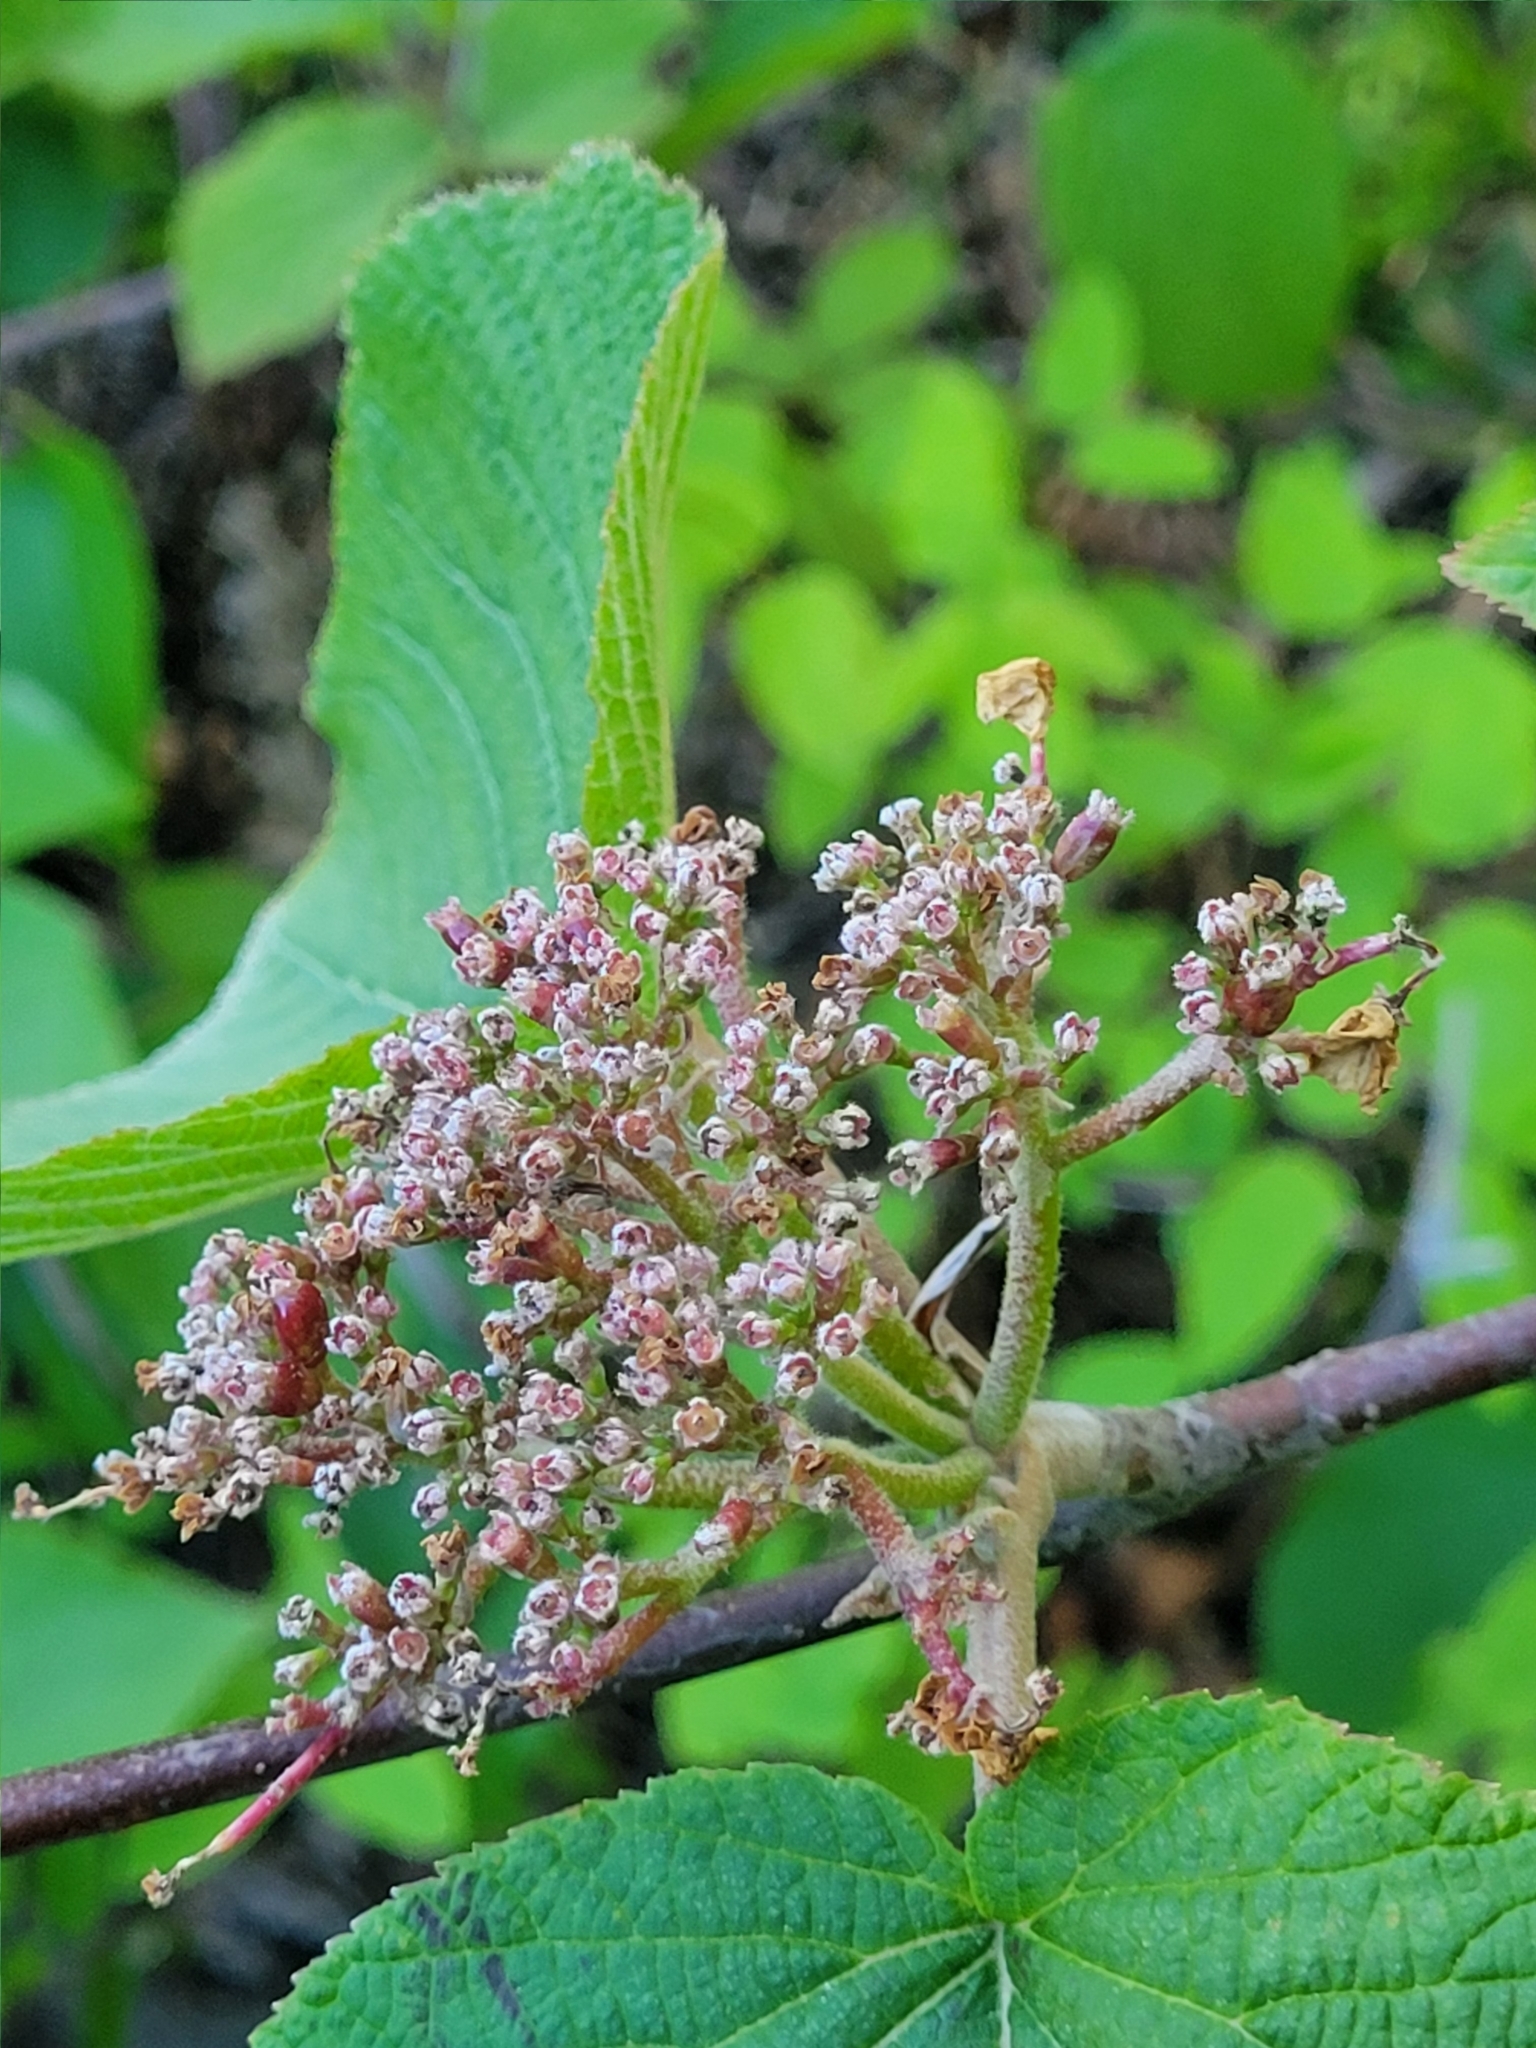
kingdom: Plantae
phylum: Tracheophyta
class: Magnoliopsida
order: Dipsacales
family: Viburnaceae
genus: Viburnum
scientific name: Viburnum lantanoides
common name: Hobblebush
